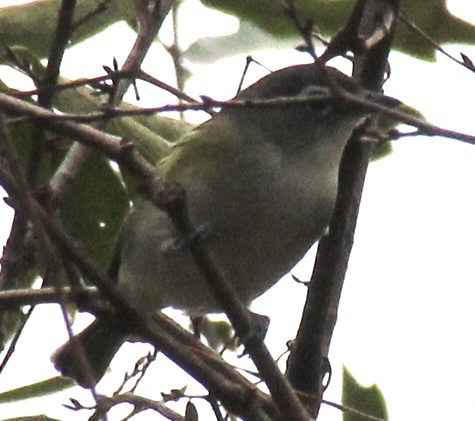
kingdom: Animalia
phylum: Chordata
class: Aves
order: Passeriformes
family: Vireonidae
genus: Vireo
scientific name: Vireo solitarius
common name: Blue-headed vireo
